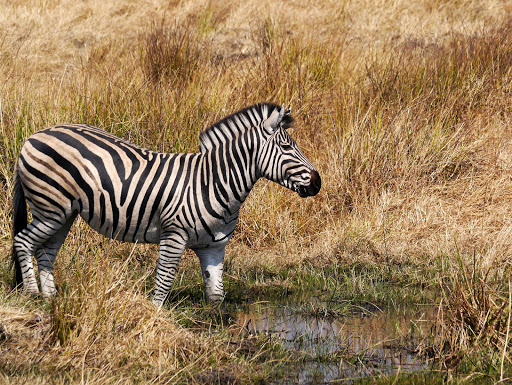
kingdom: Animalia
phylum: Chordata
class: Mammalia
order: Perissodactyla
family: Equidae
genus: Equus
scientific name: Equus quagga
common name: Plains zebra
